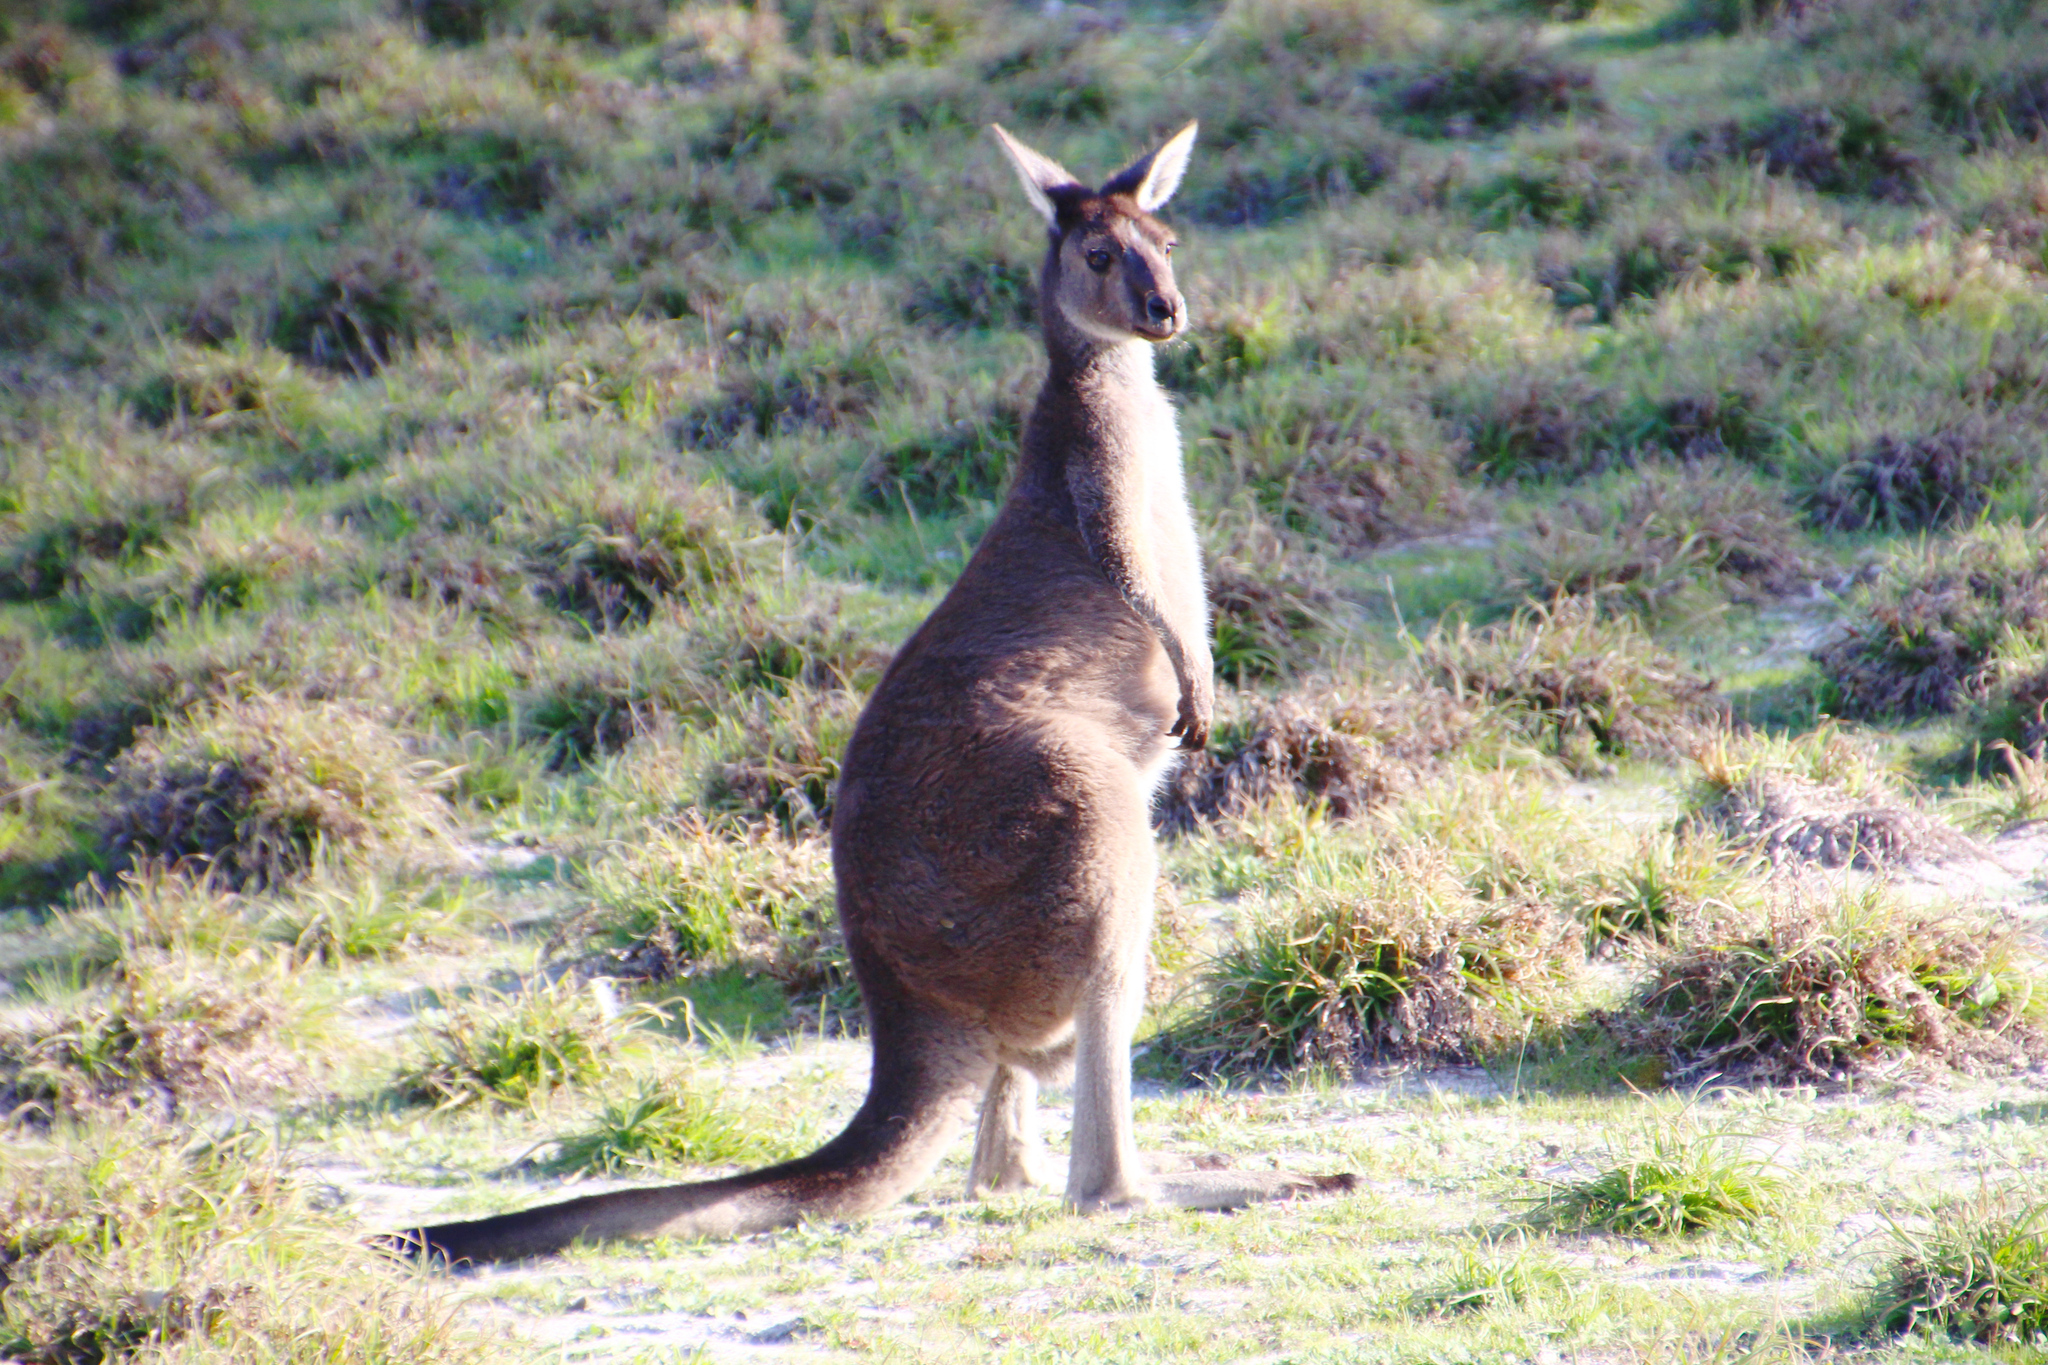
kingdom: Animalia
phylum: Chordata
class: Mammalia
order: Diprotodontia
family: Macropodidae
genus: Macropus
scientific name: Macropus fuliginosus
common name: Western grey kangaroo
